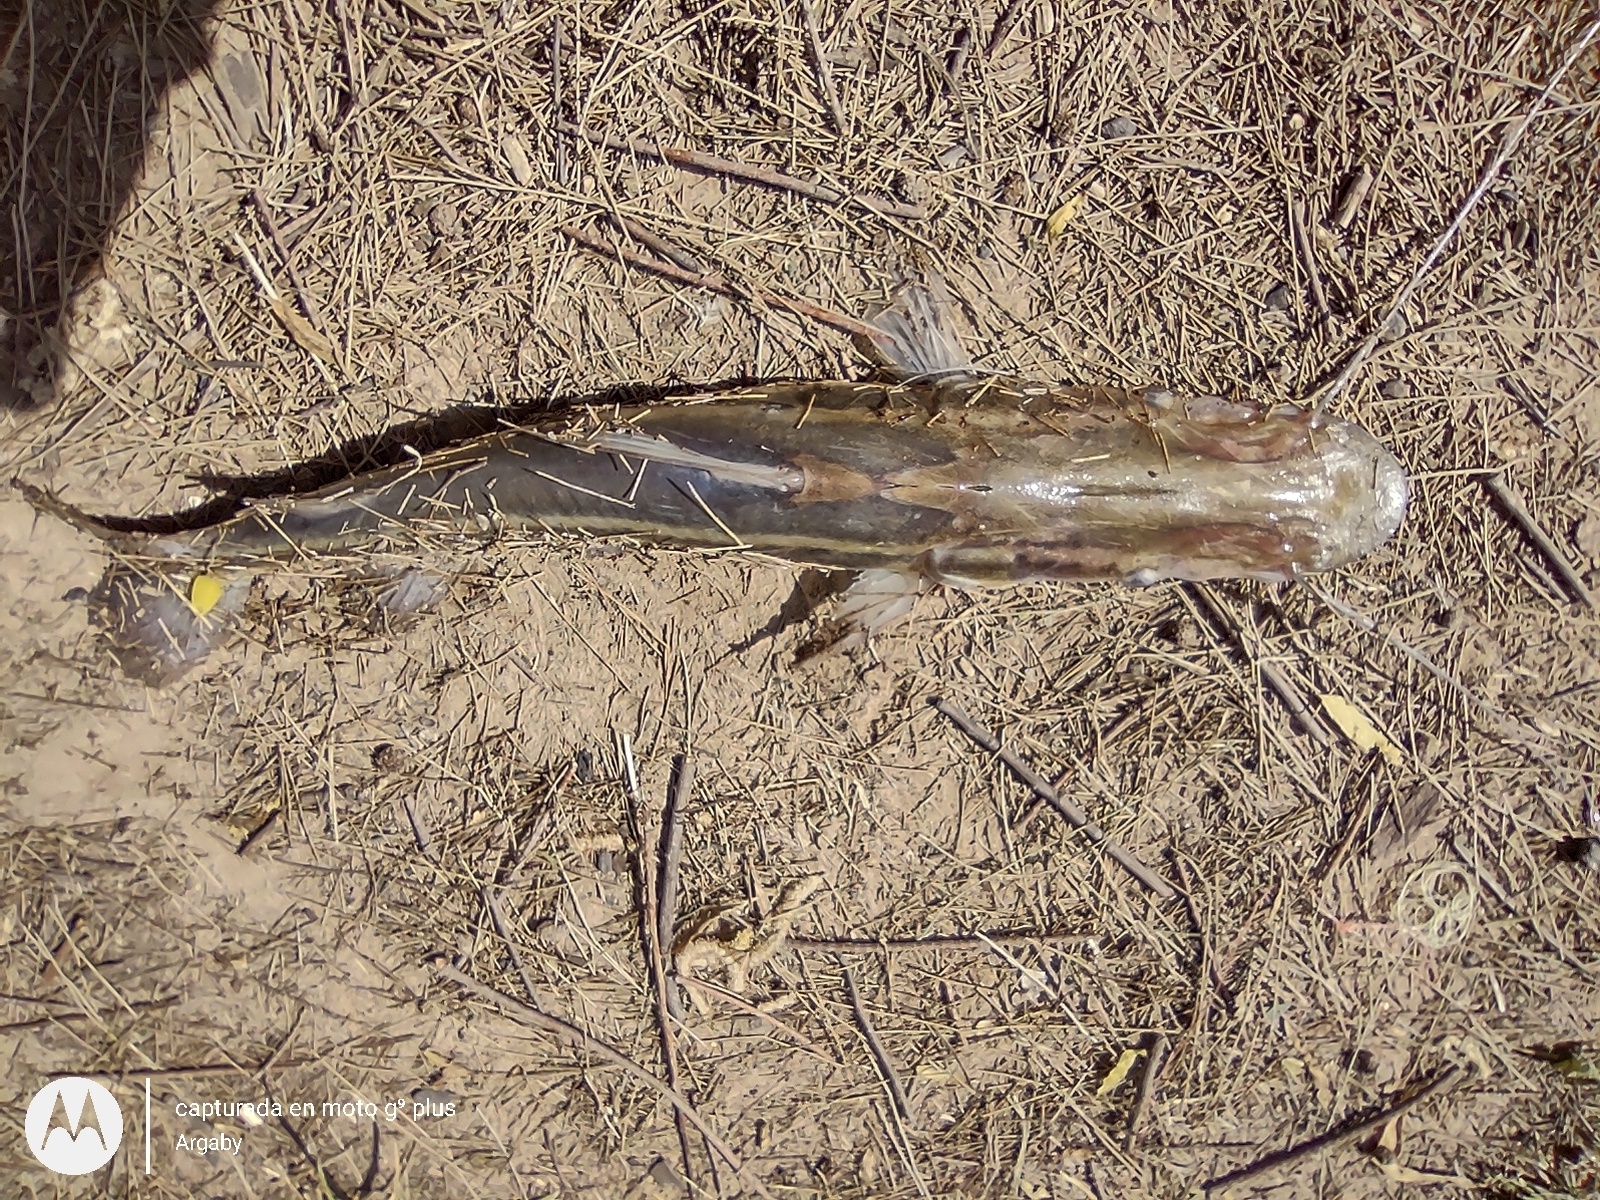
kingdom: Animalia
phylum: Chordata
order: Siluriformes
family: Pimelodidae
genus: Sorubim
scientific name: Sorubim lima
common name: Duckbill catfish
